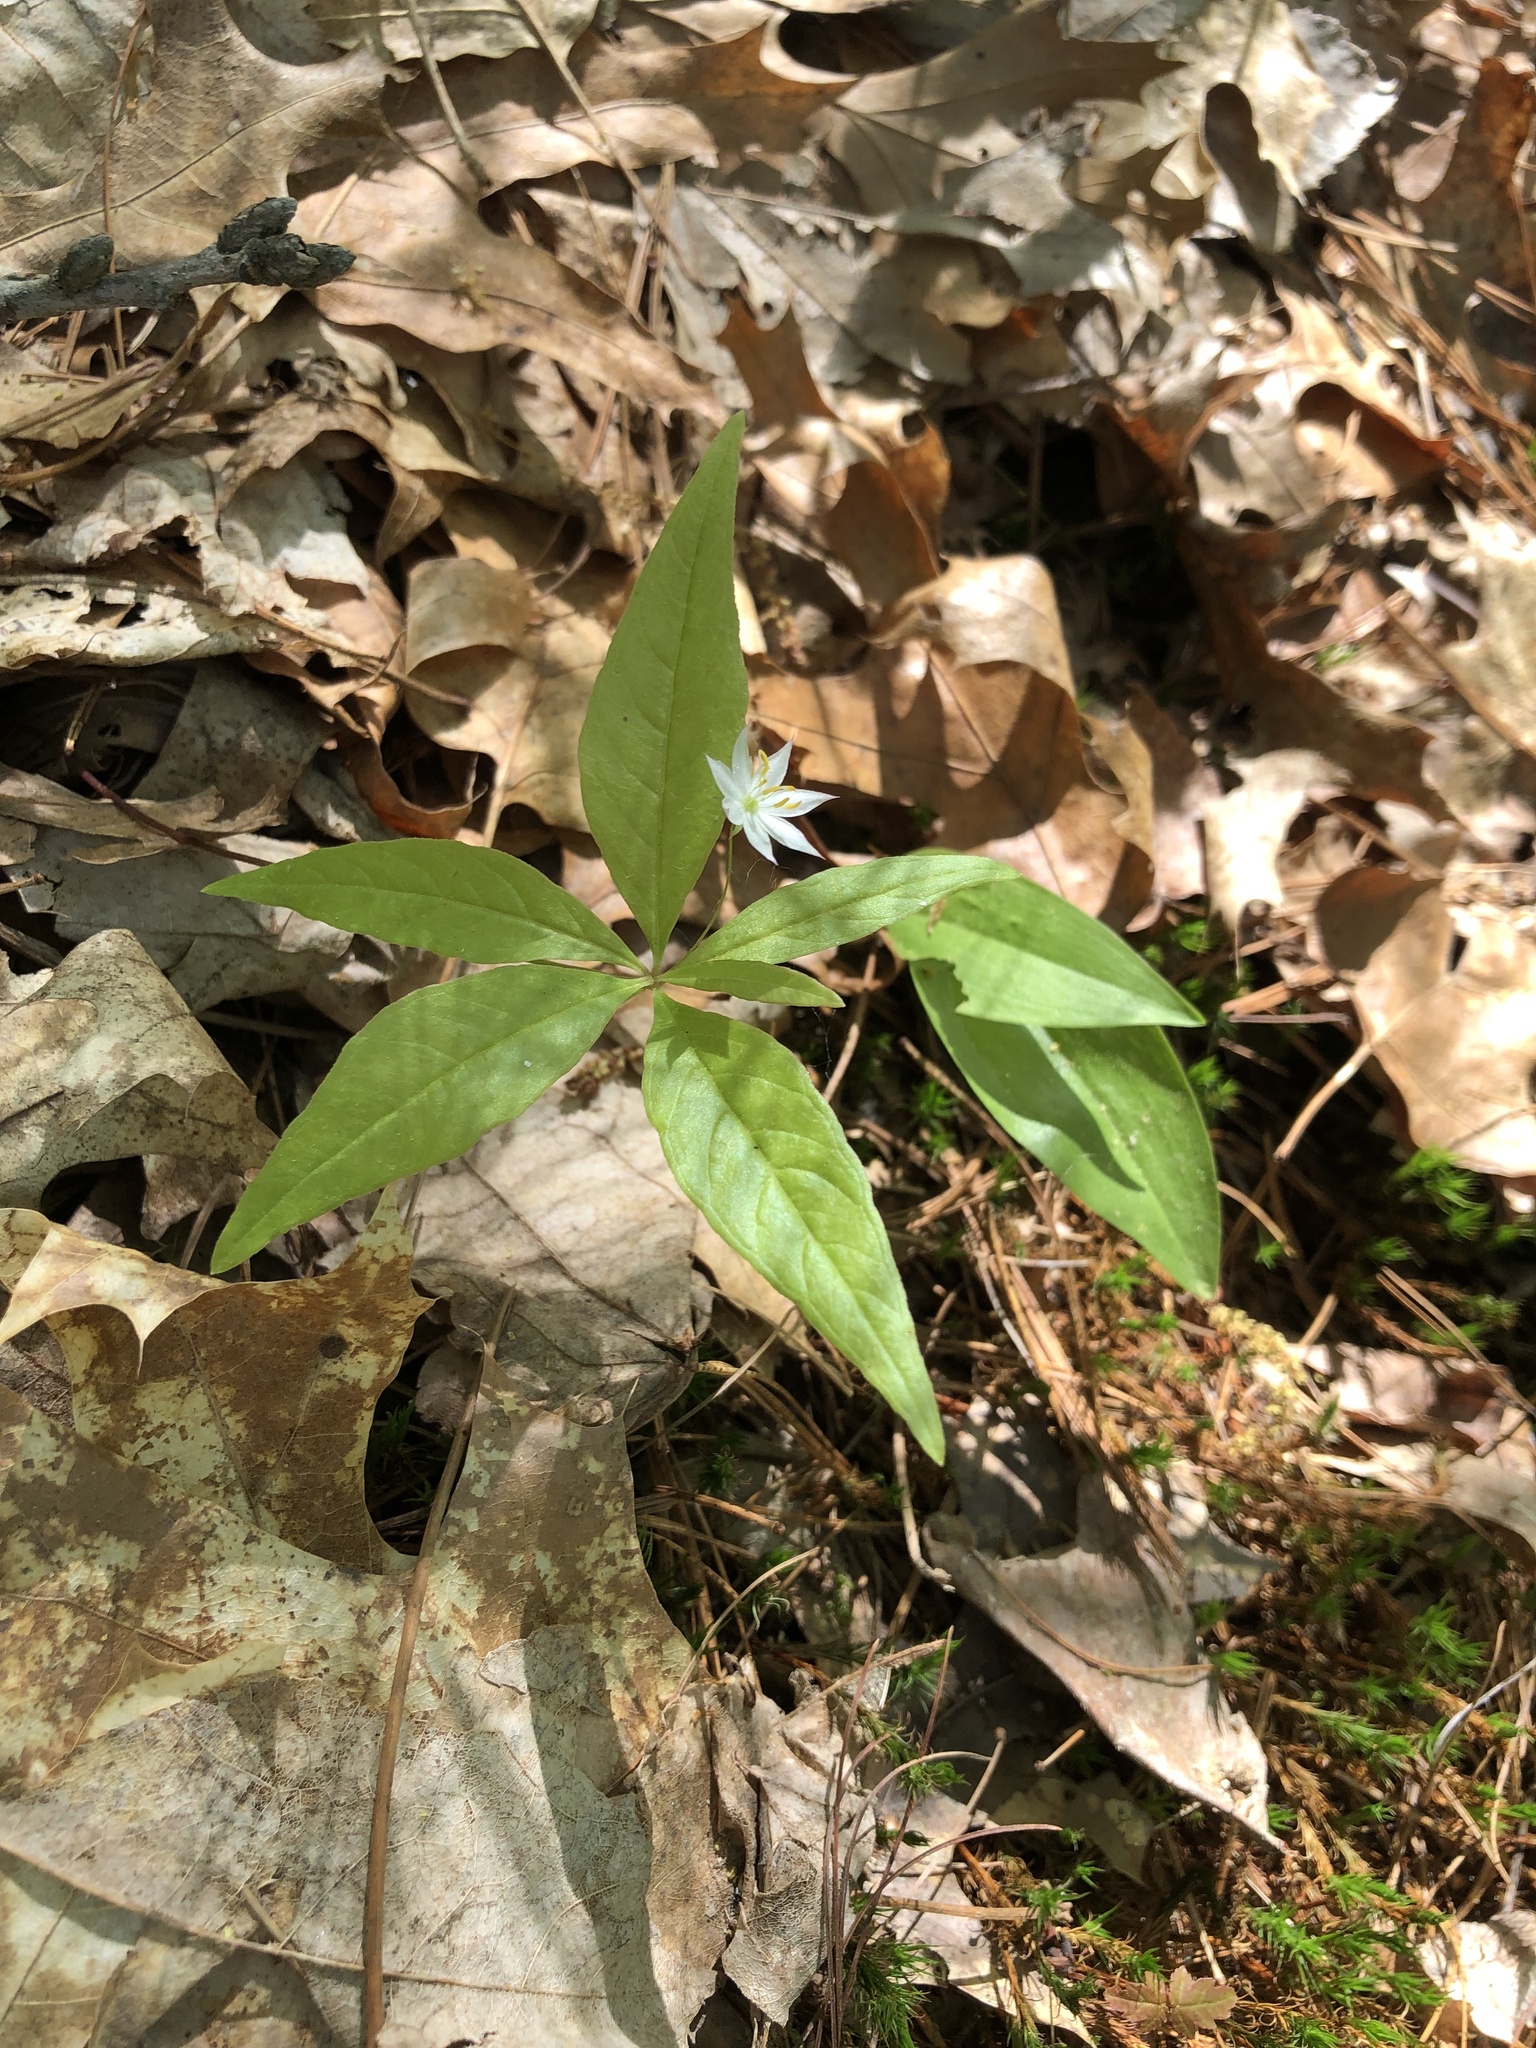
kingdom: Plantae
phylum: Tracheophyta
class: Magnoliopsida
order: Ericales
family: Primulaceae
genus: Lysimachia
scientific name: Lysimachia borealis
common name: American starflower
